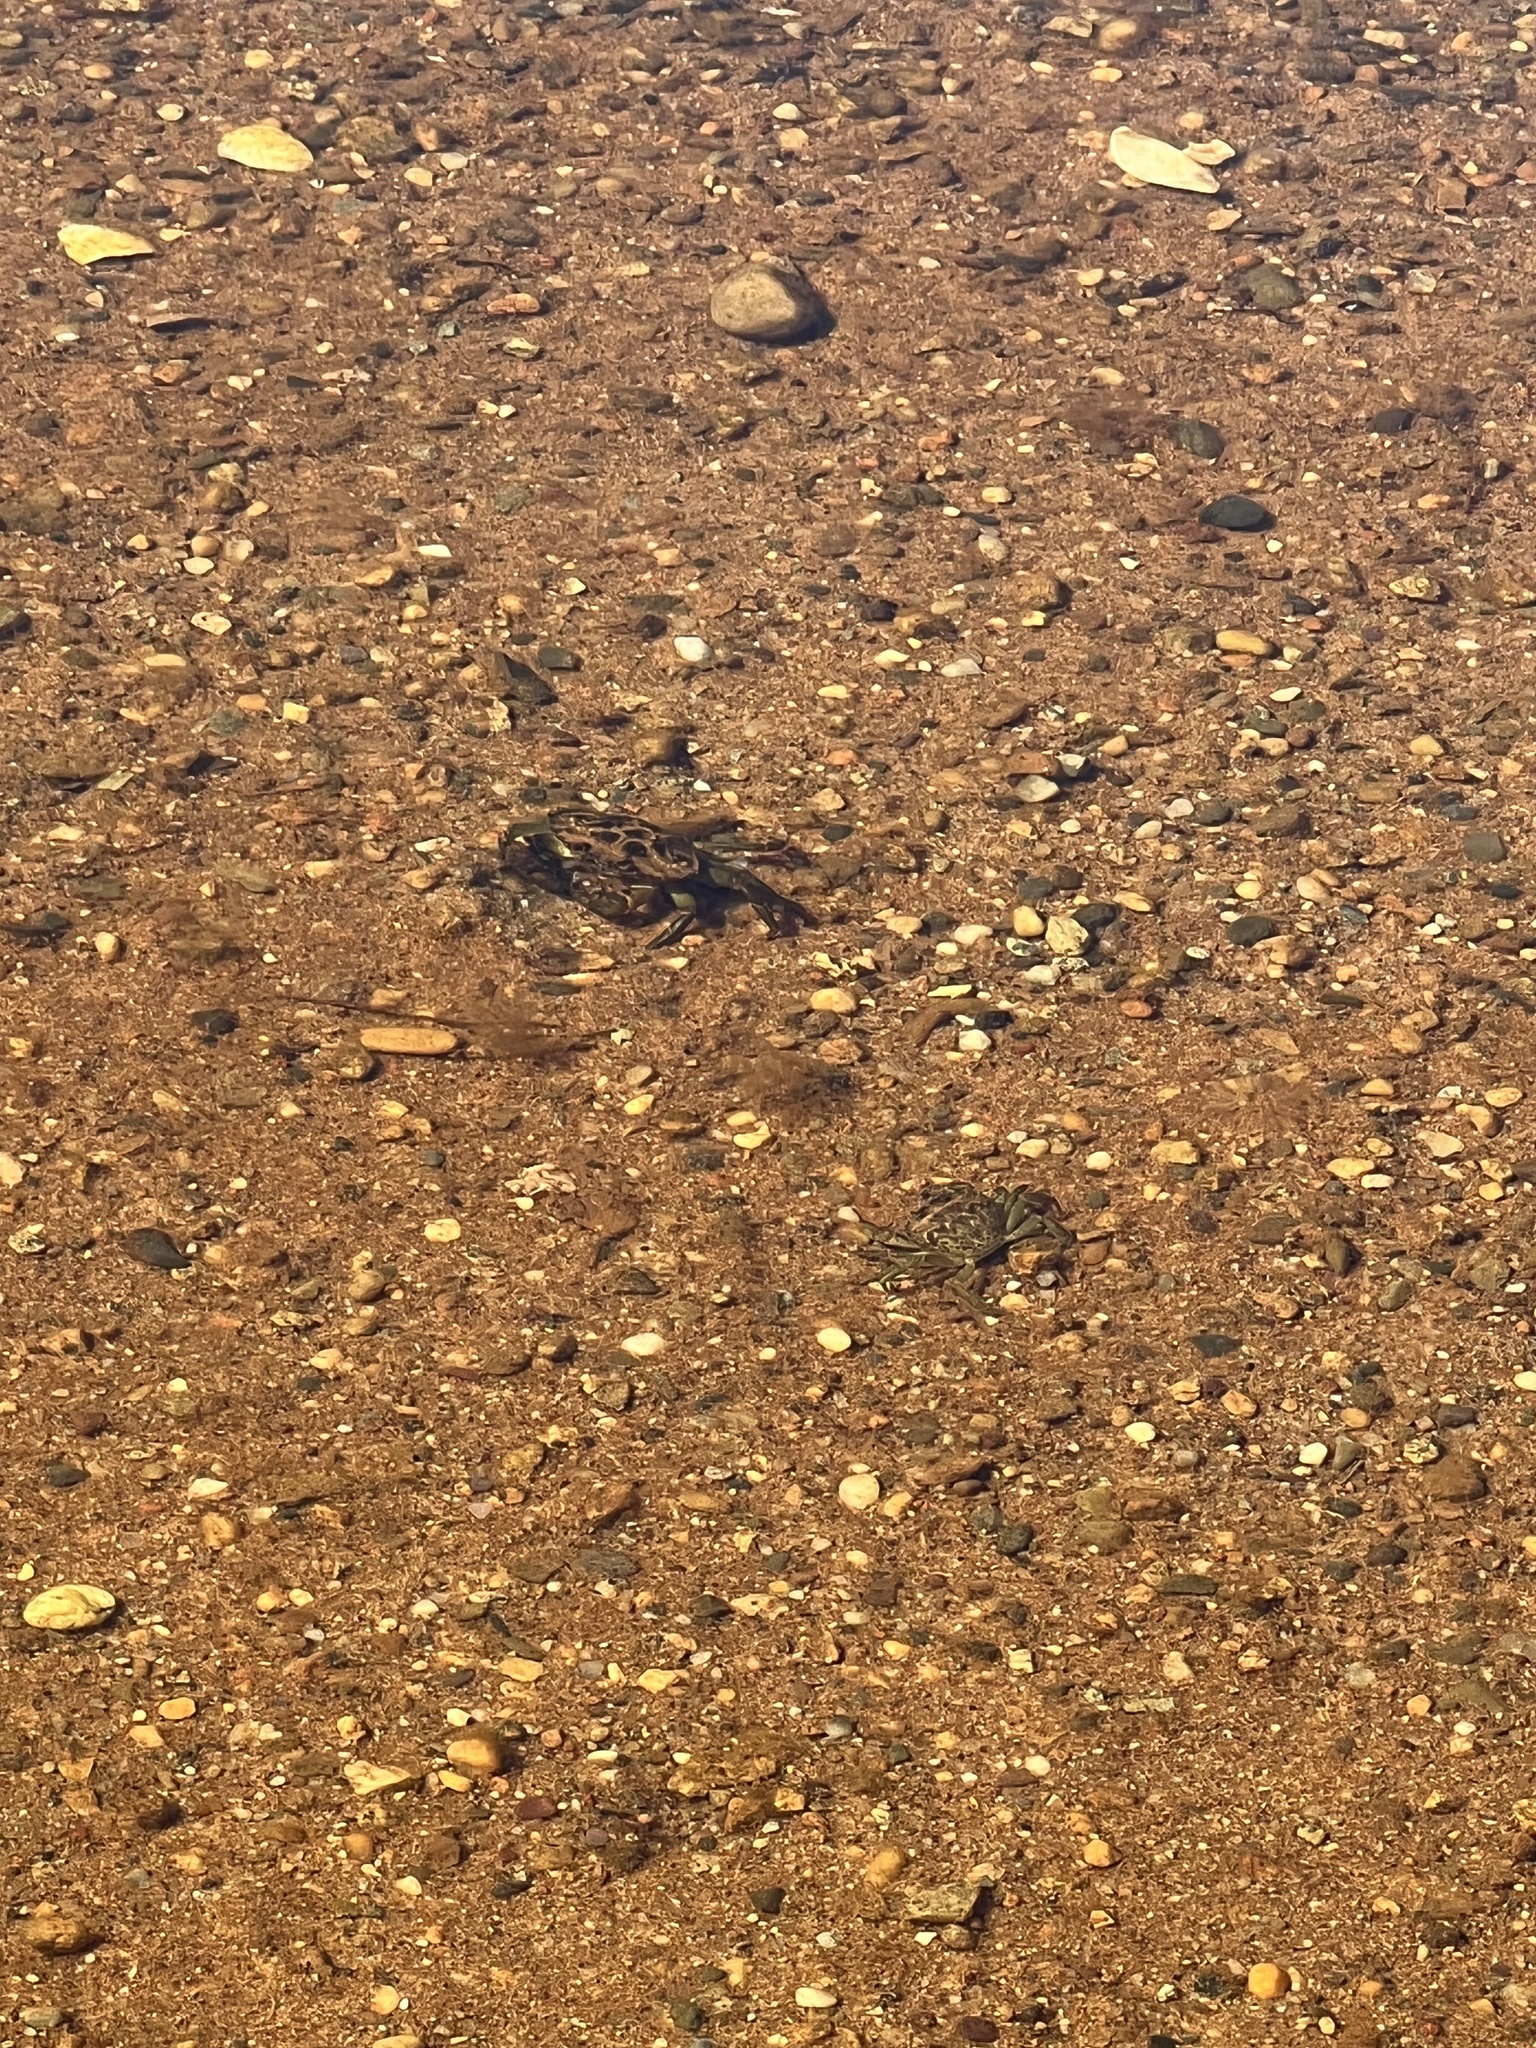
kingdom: Animalia
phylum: Arthropoda
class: Malacostraca
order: Decapoda
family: Carcinidae
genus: Carcinus
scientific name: Carcinus maenas
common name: European green crab
